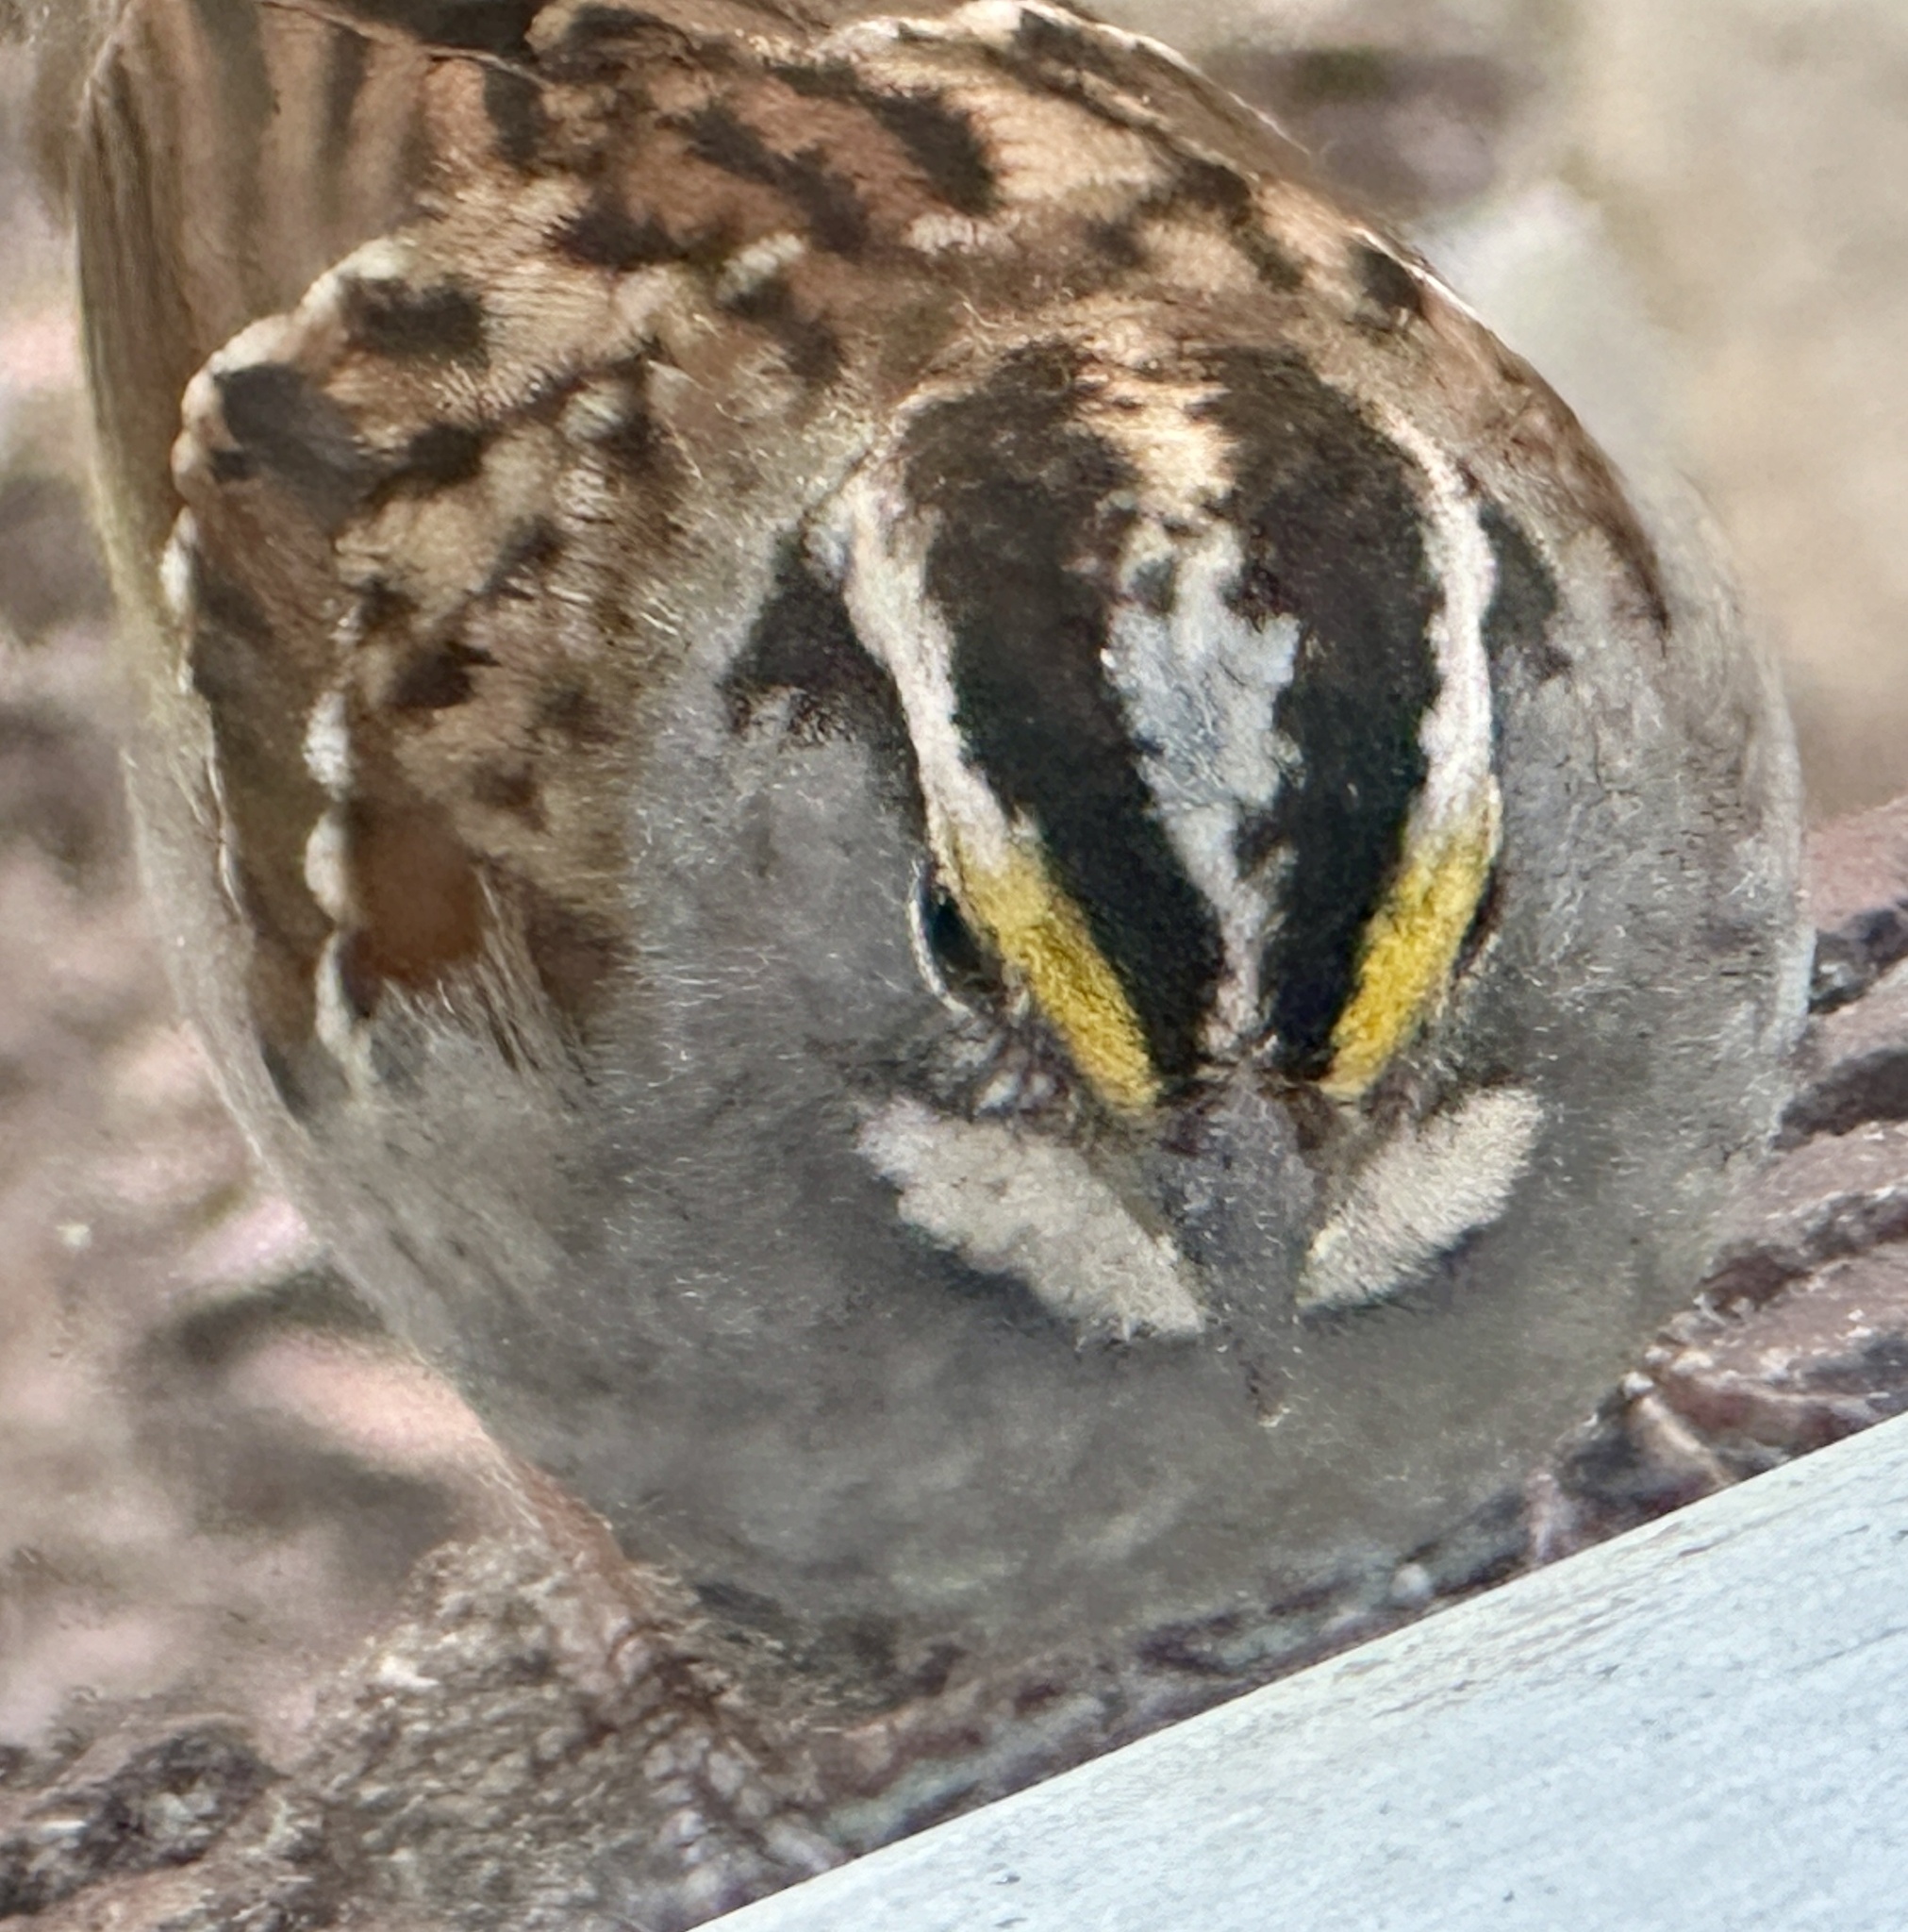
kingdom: Animalia
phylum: Chordata
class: Aves
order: Passeriformes
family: Passerellidae
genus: Zonotrichia
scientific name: Zonotrichia albicollis
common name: White-throated sparrow
